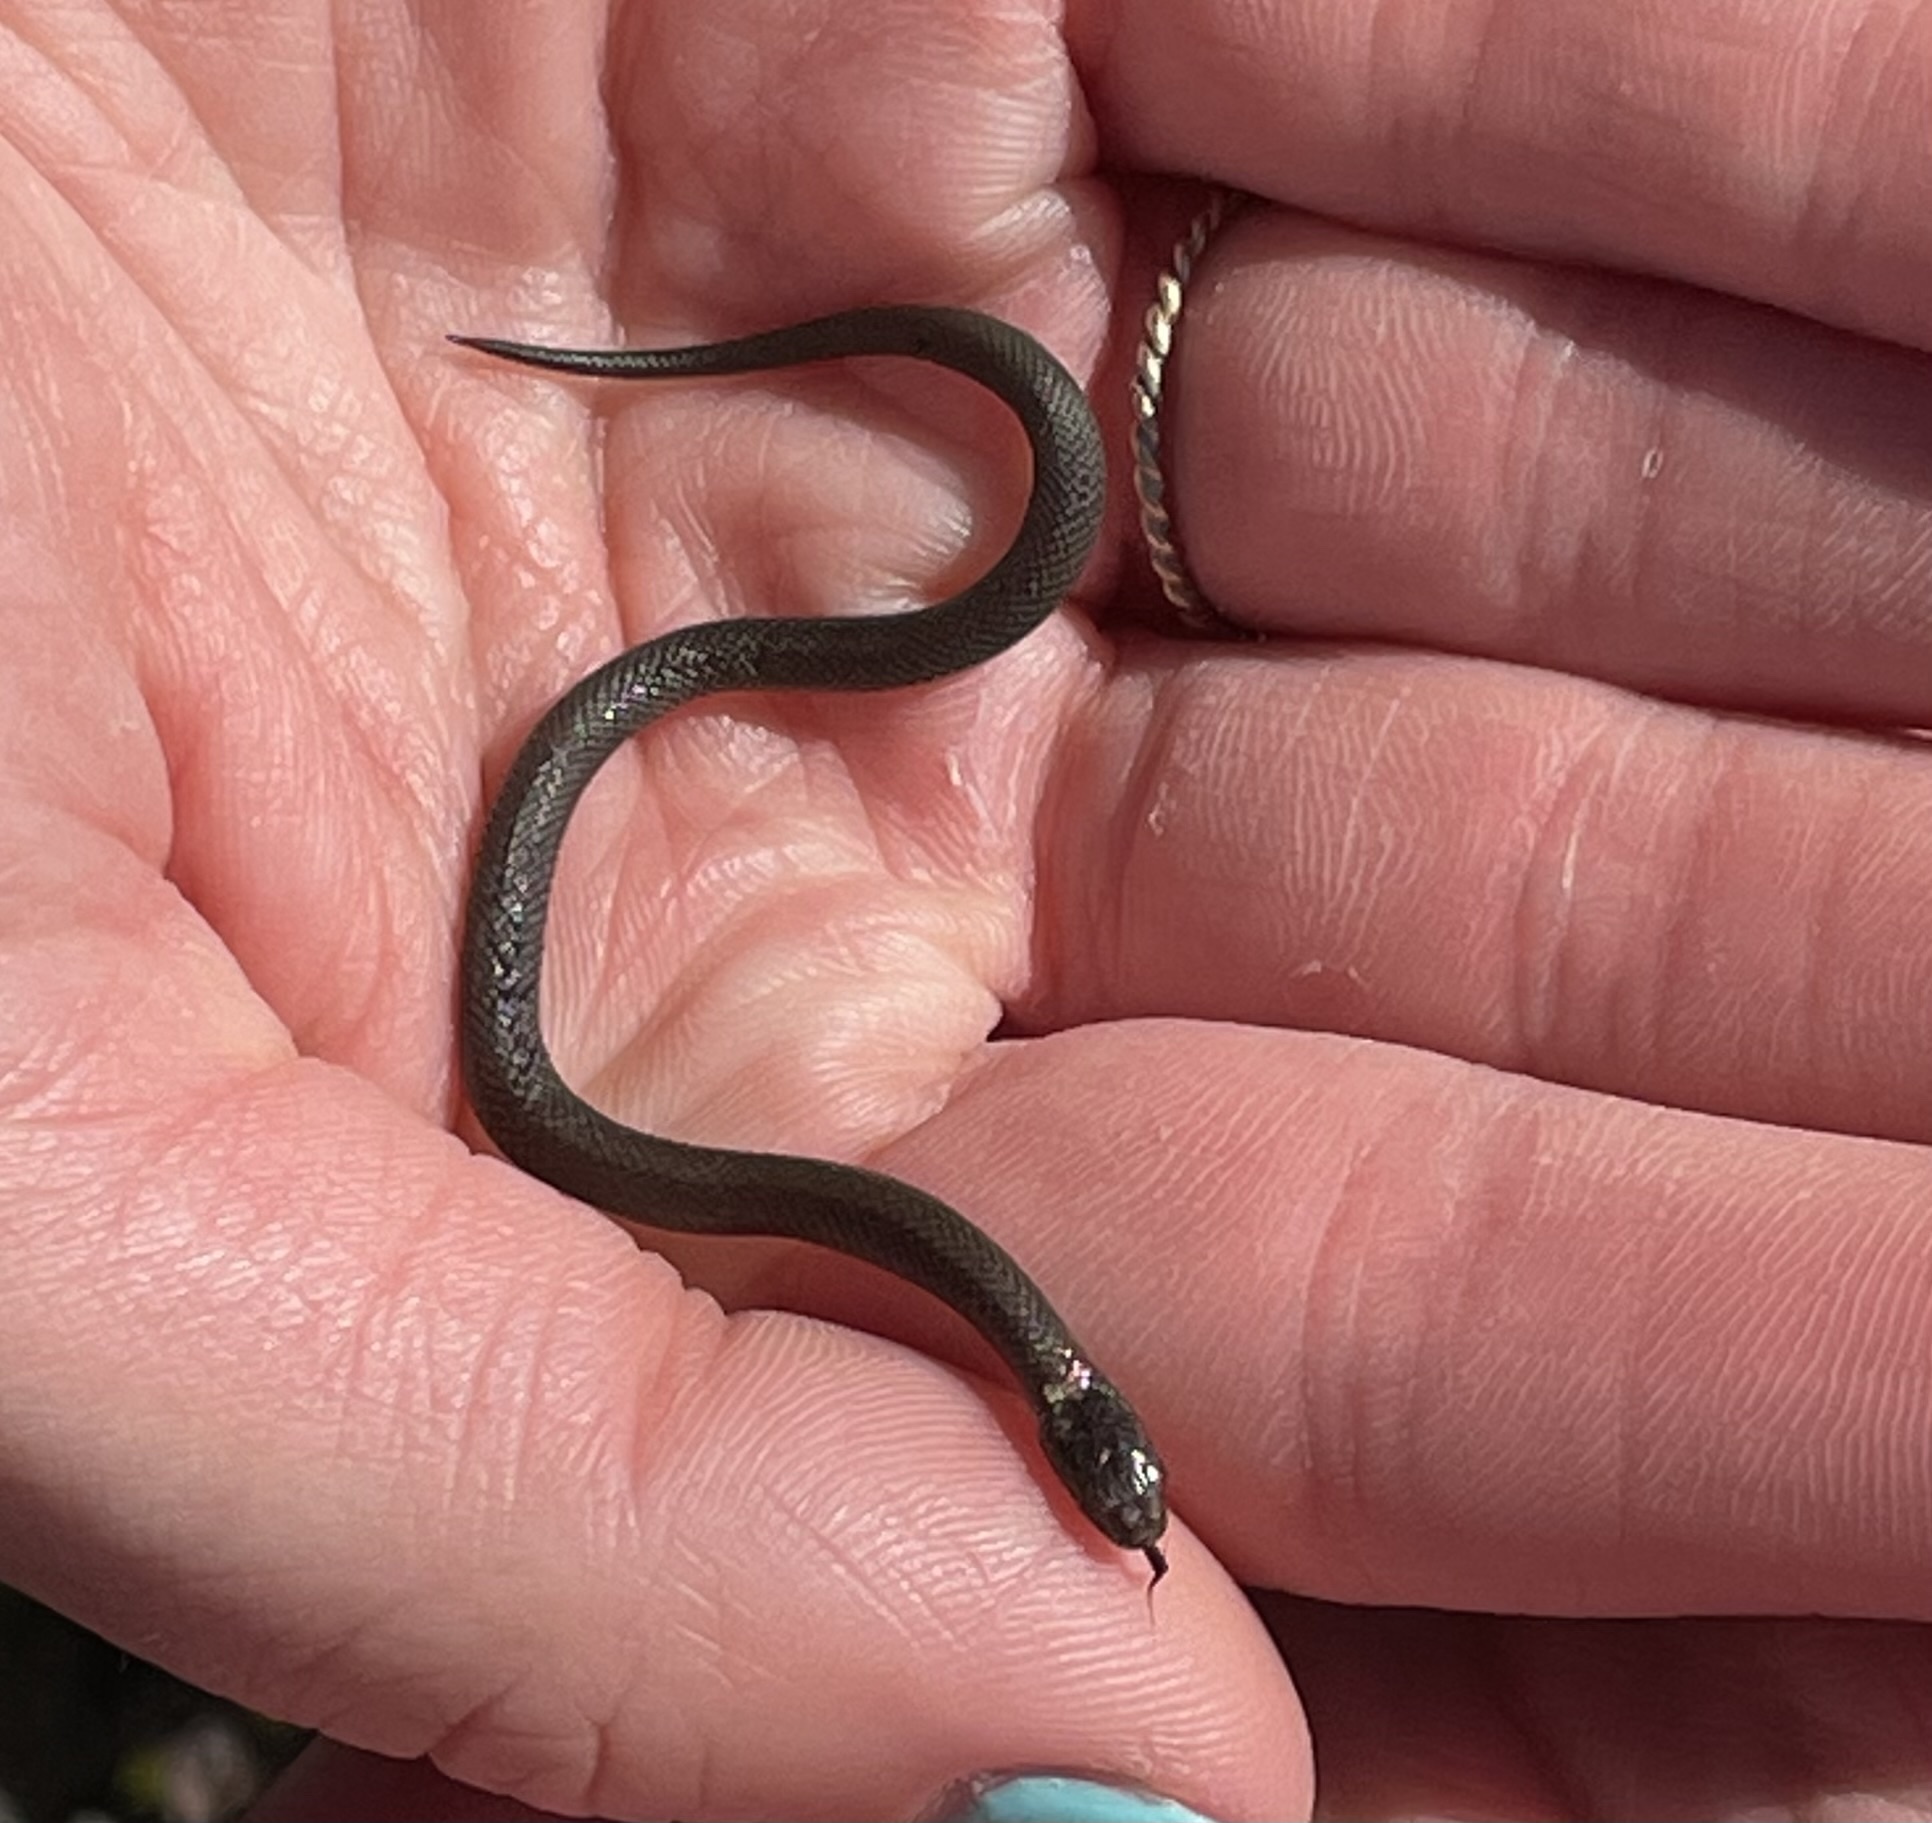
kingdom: Animalia
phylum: Chordata
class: Squamata
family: Colubridae
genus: Storeria
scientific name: Storeria occipitomaculata
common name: Redbelly snake
